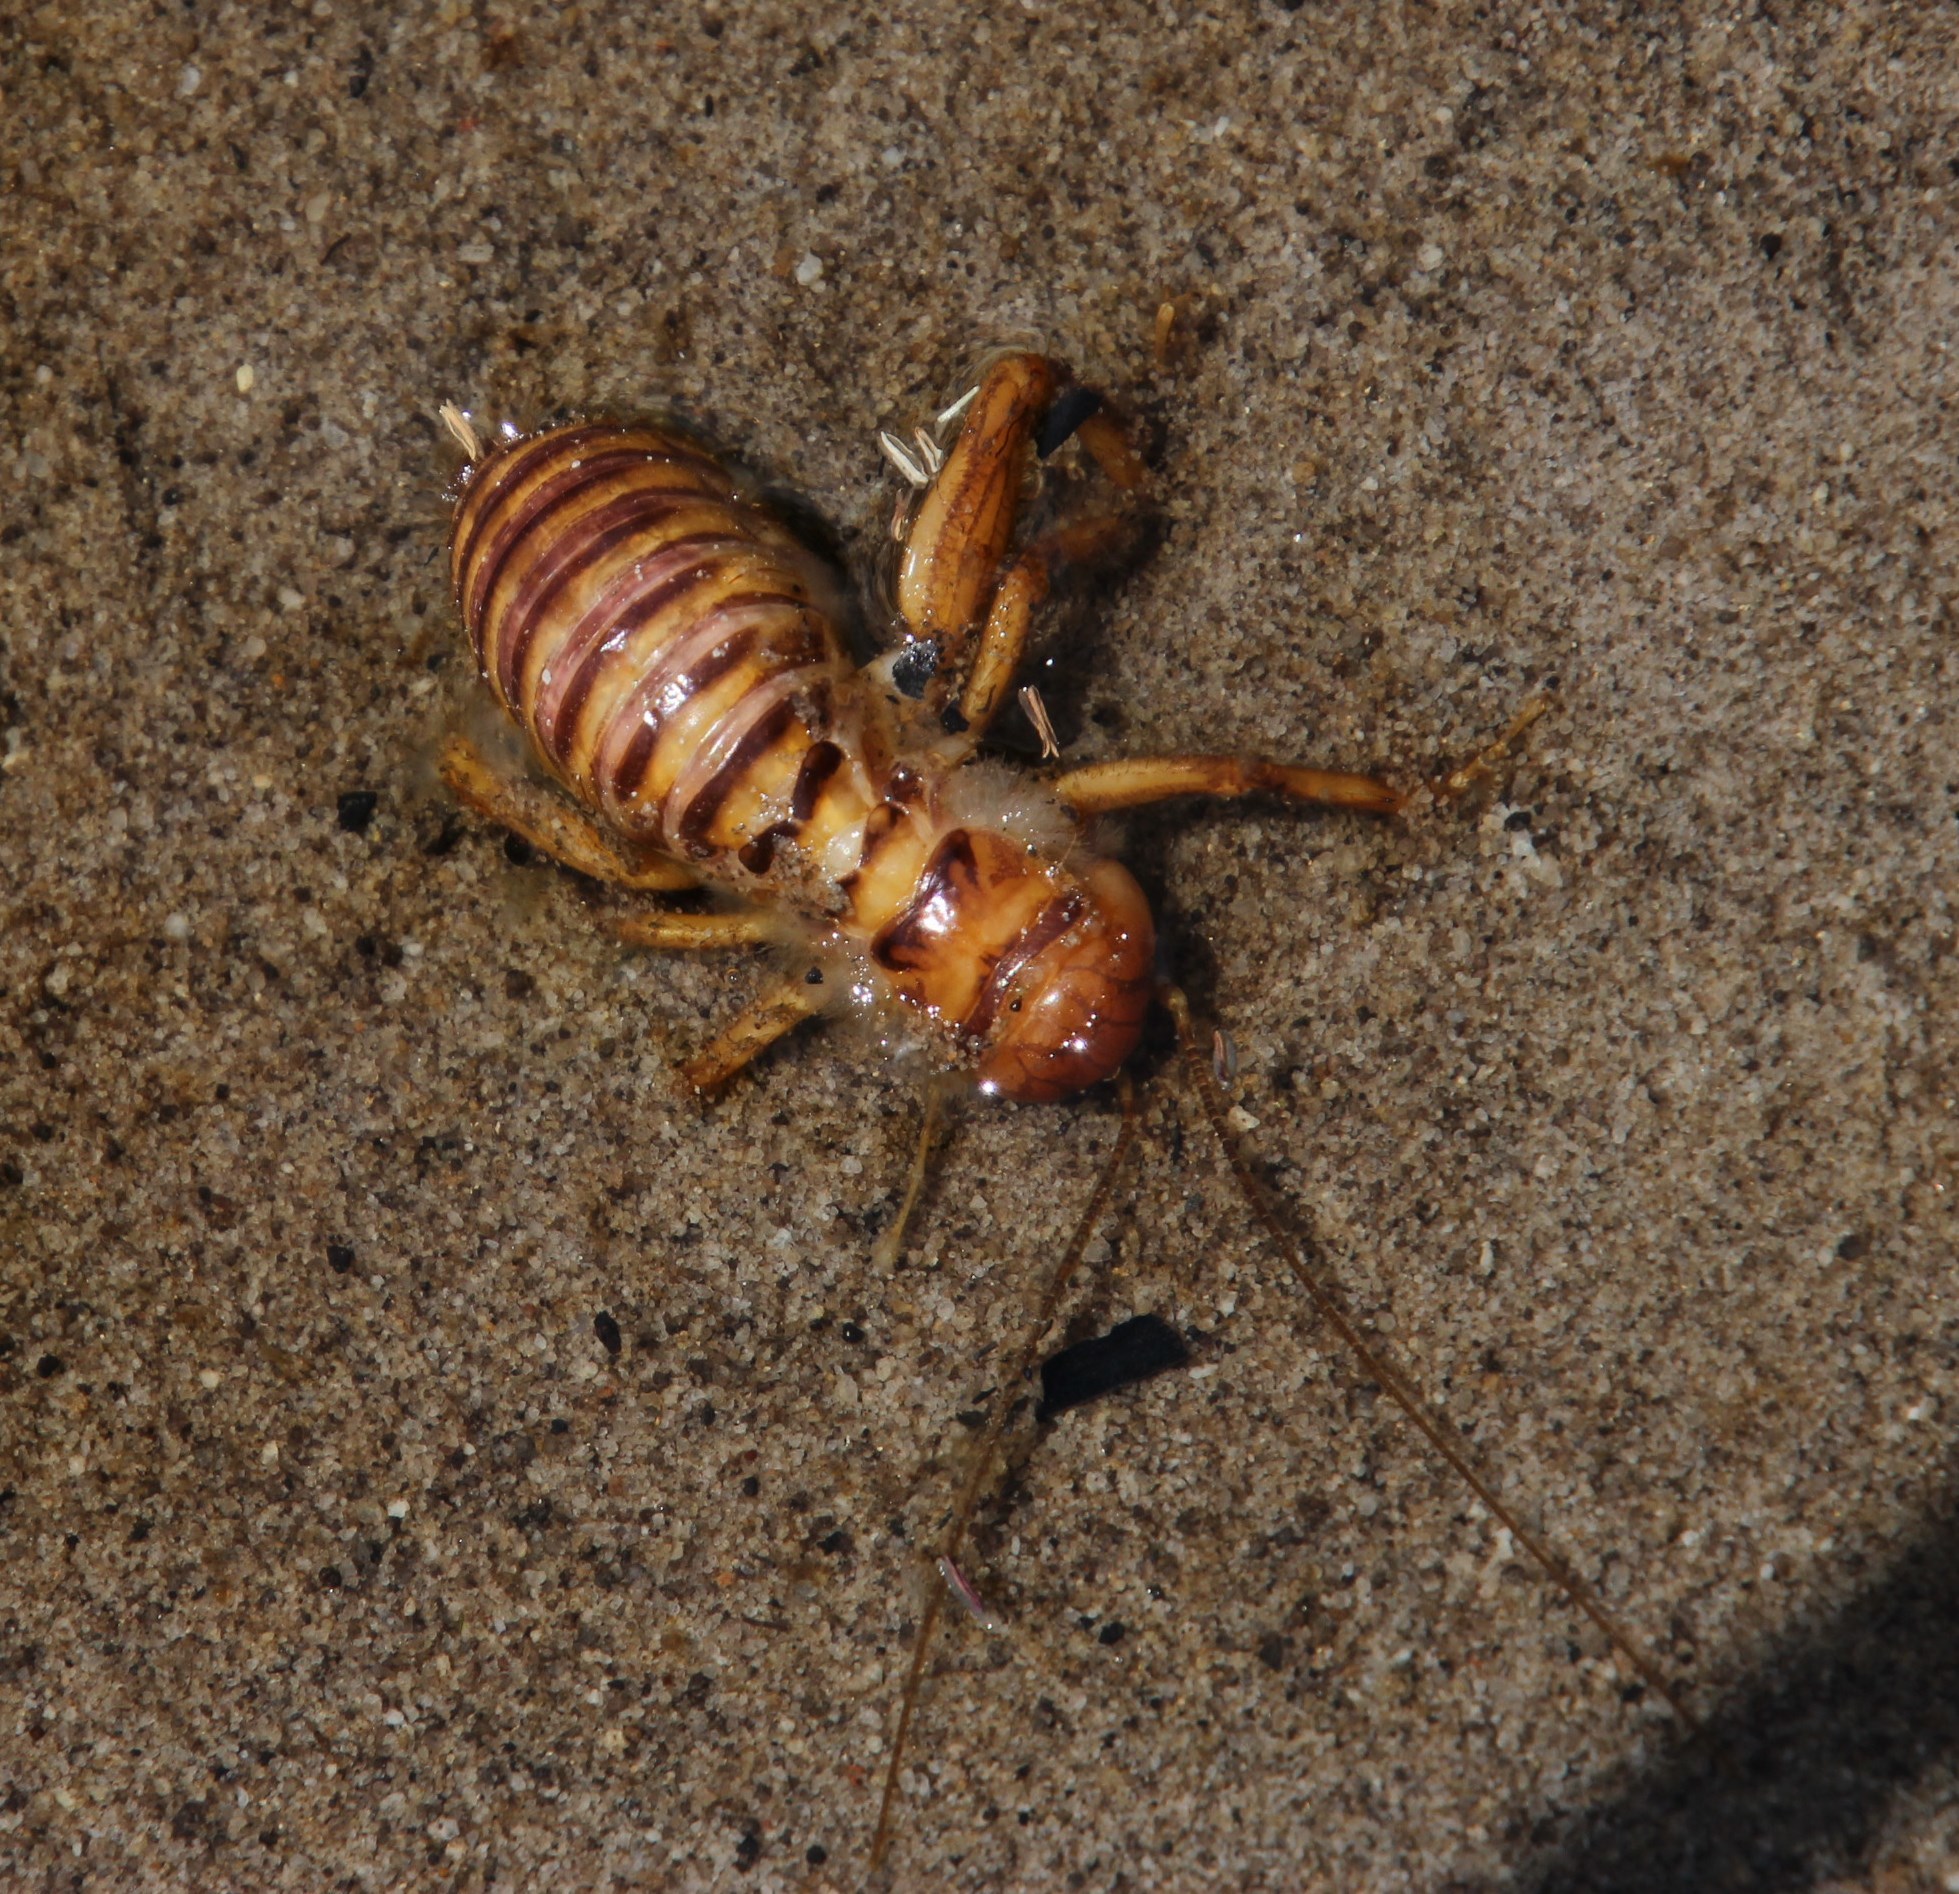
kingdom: Animalia
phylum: Arthropoda
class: Insecta
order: Orthoptera
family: Stenopelmatidae
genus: Maxentius
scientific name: Maxentius pallidus
